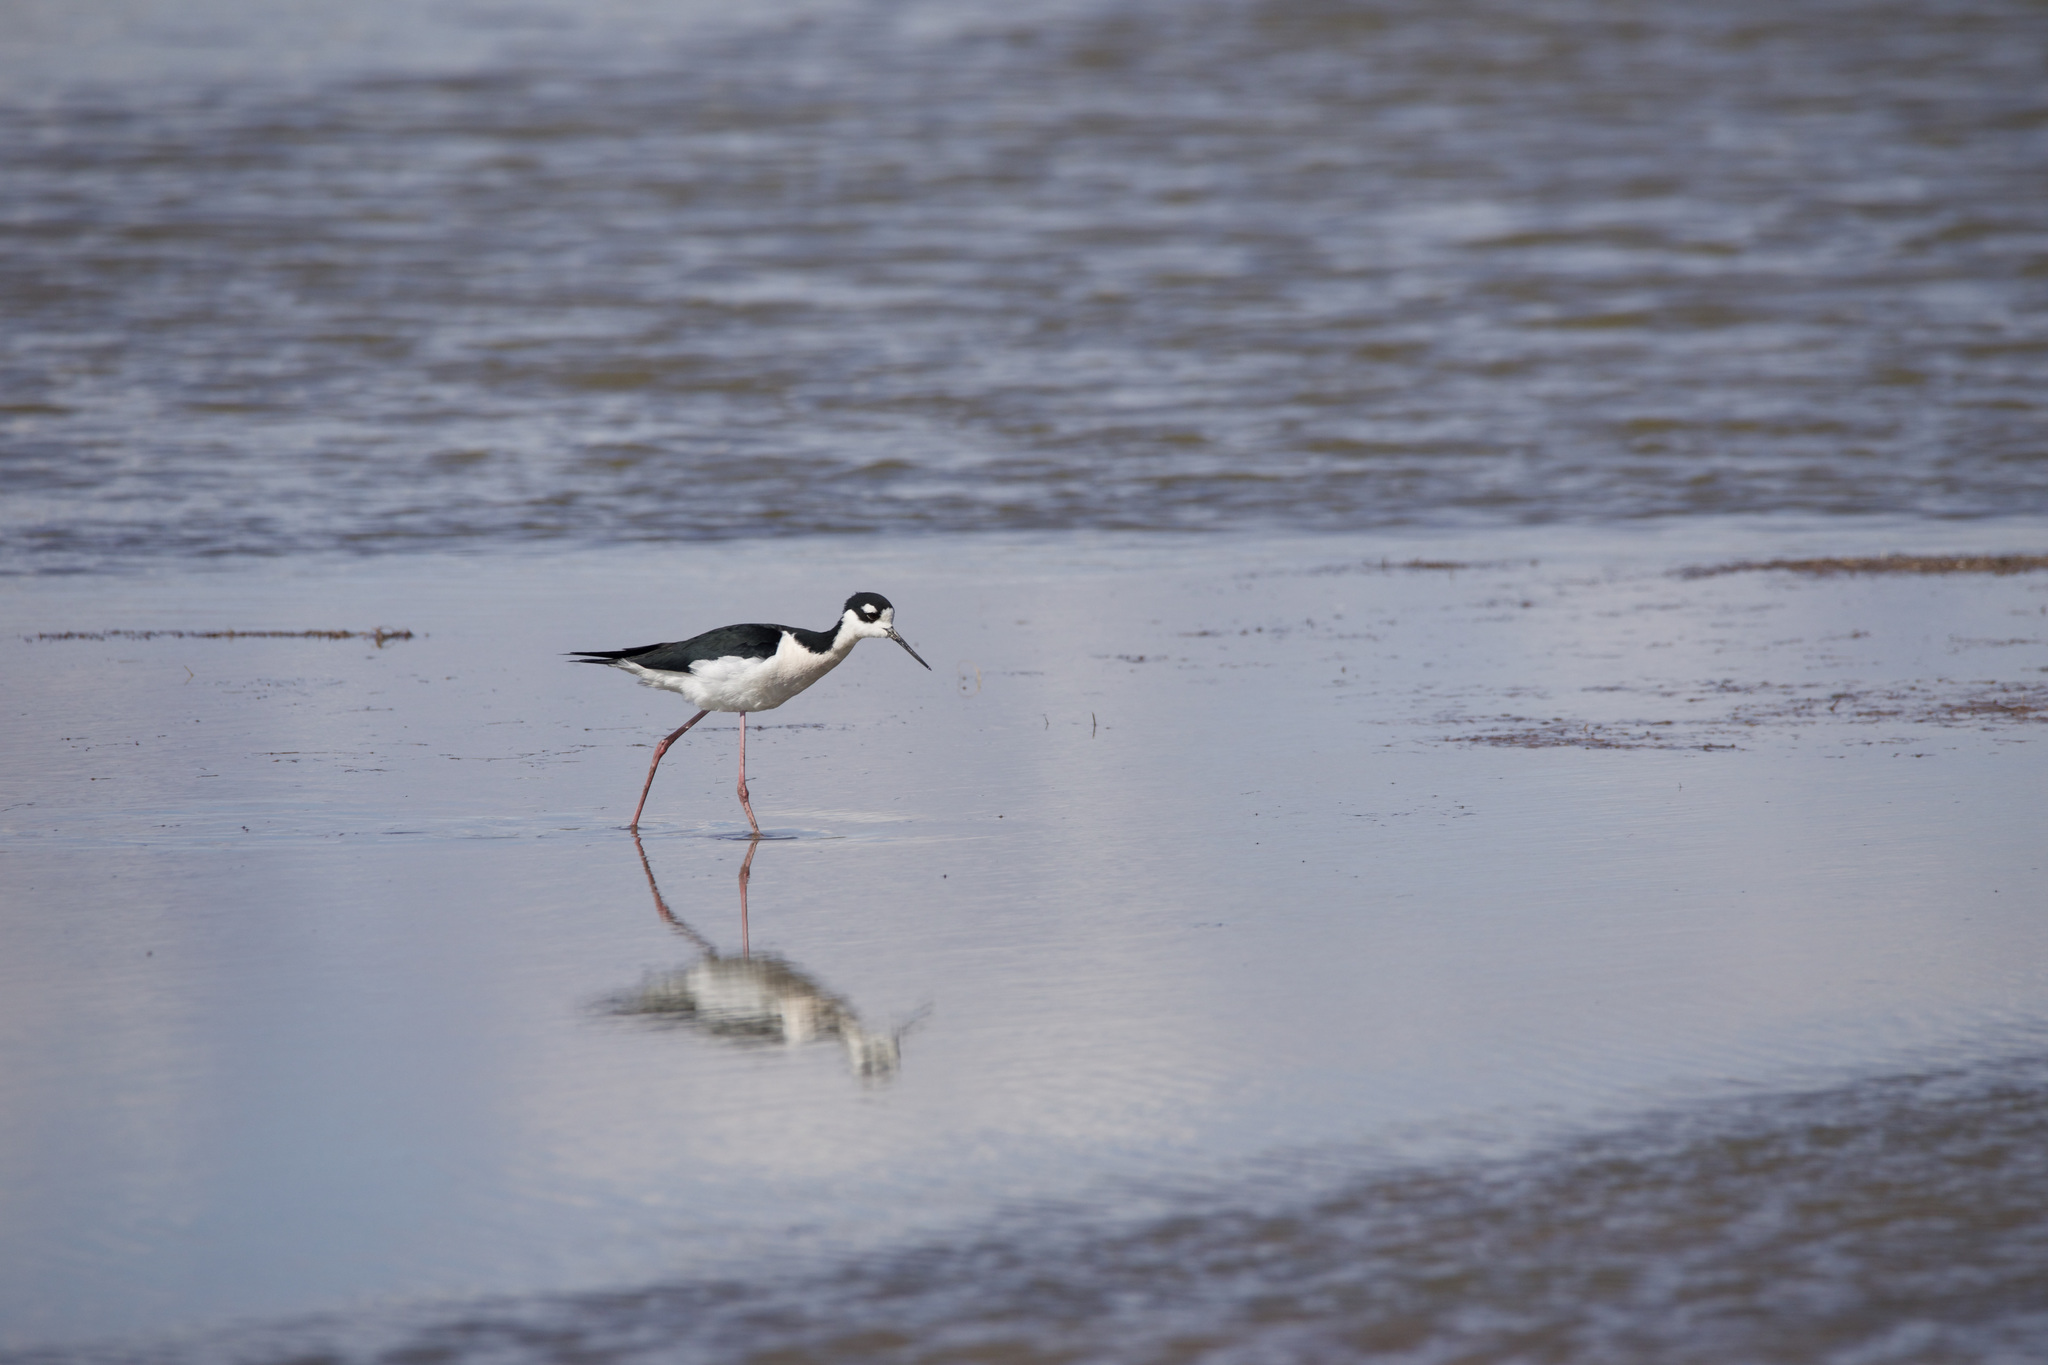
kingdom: Animalia
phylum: Chordata
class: Aves
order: Charadriiformes
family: Recurvirostridae
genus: Himantopus
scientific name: Himantopus mexicanus
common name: Black-necked stilt
